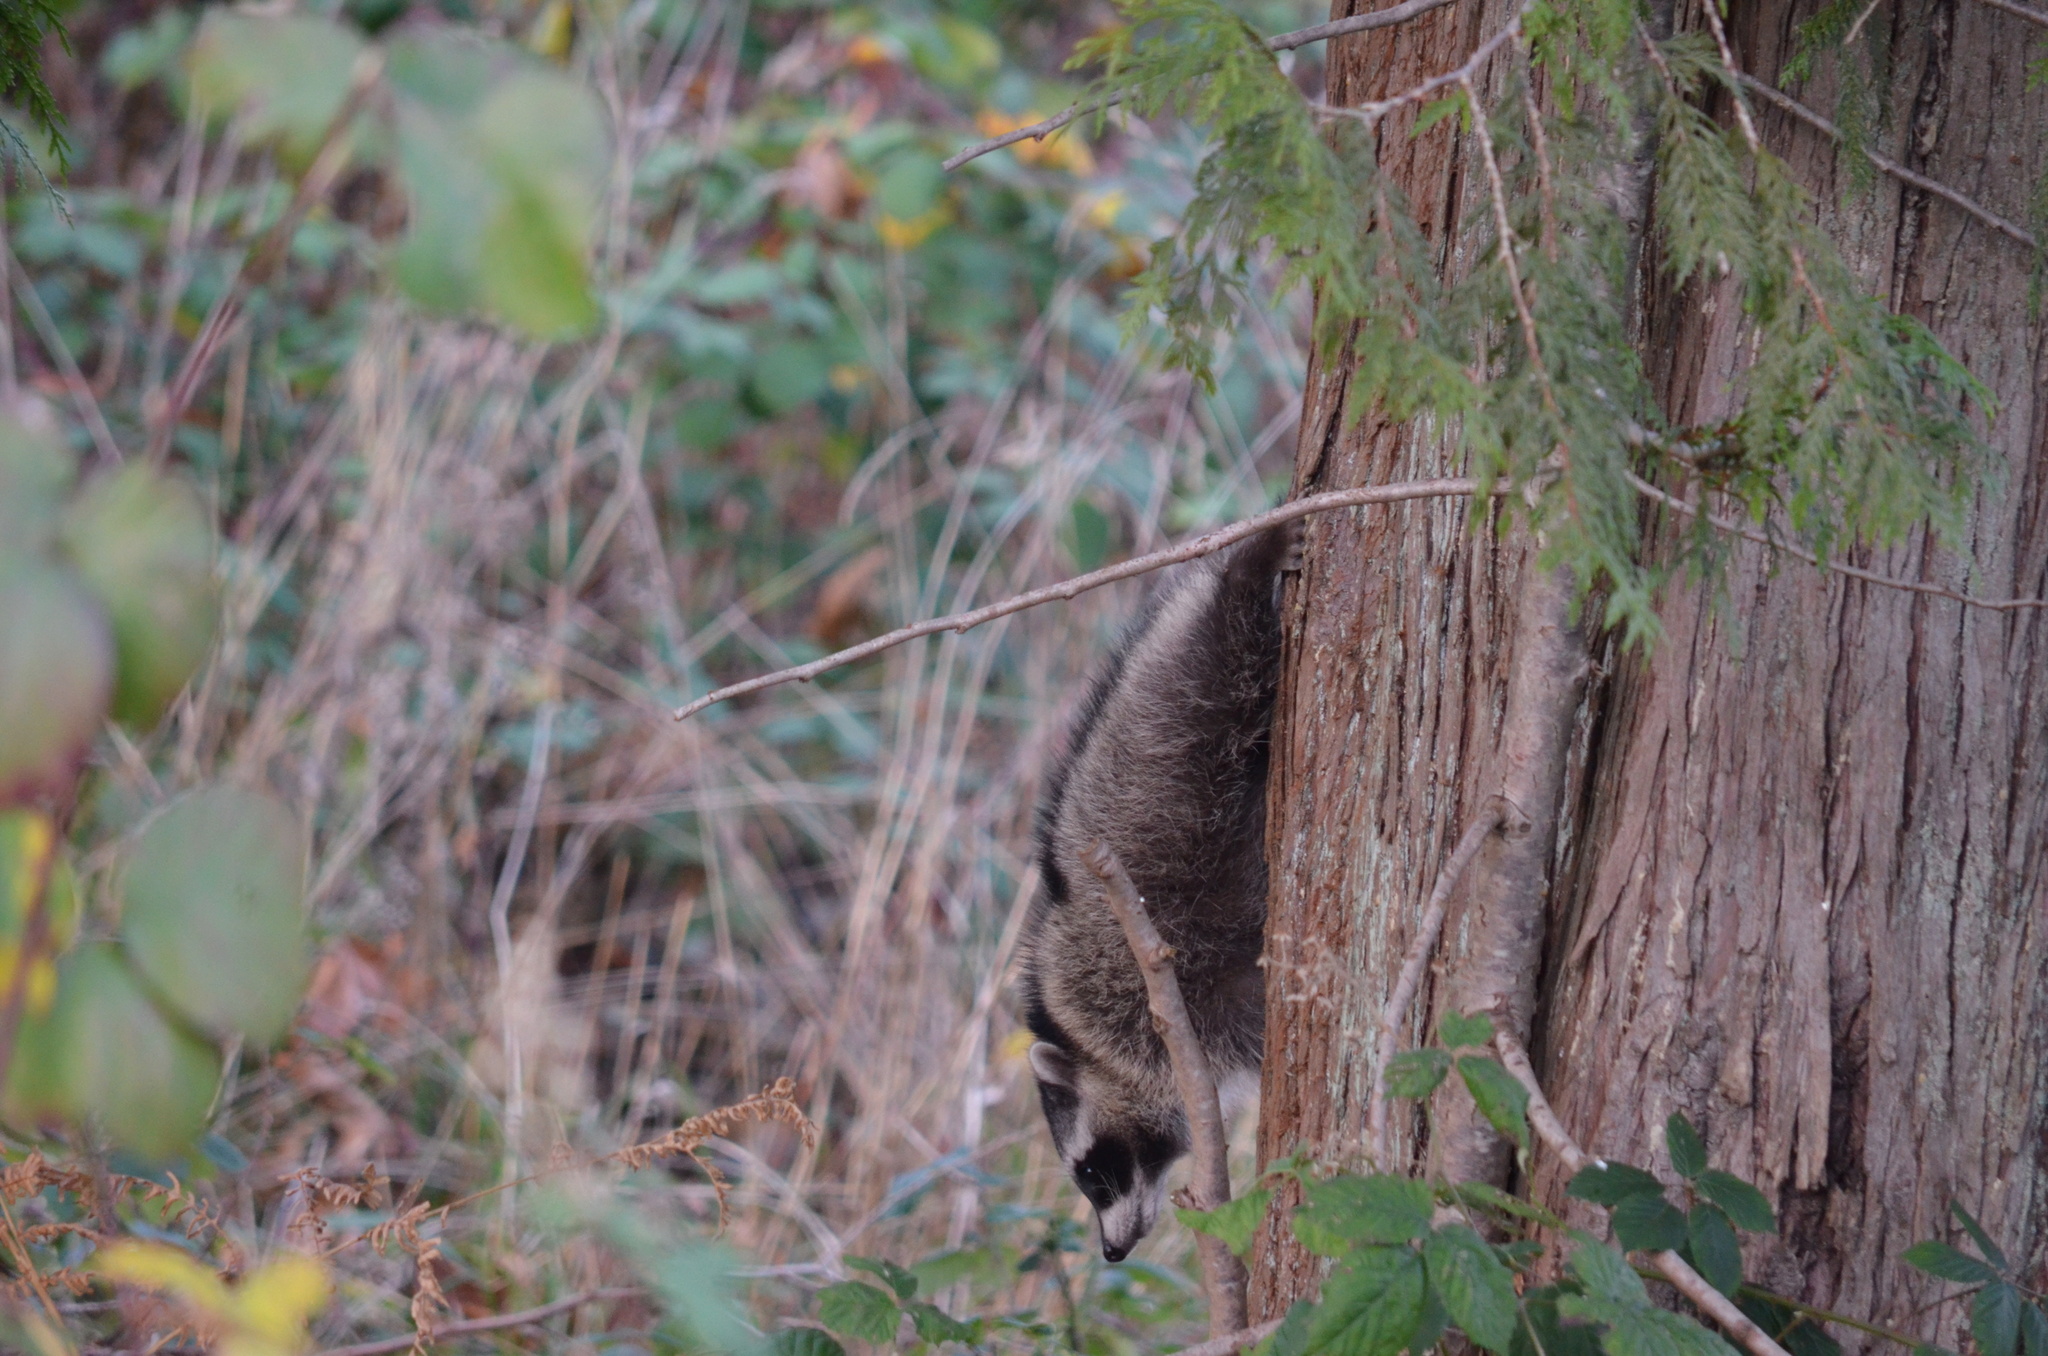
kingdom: Animalia
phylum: Chordata
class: Mammalia
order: Carnivora
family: Procyonidae
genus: Procyon
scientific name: Procyon lotor
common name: Raccoon
